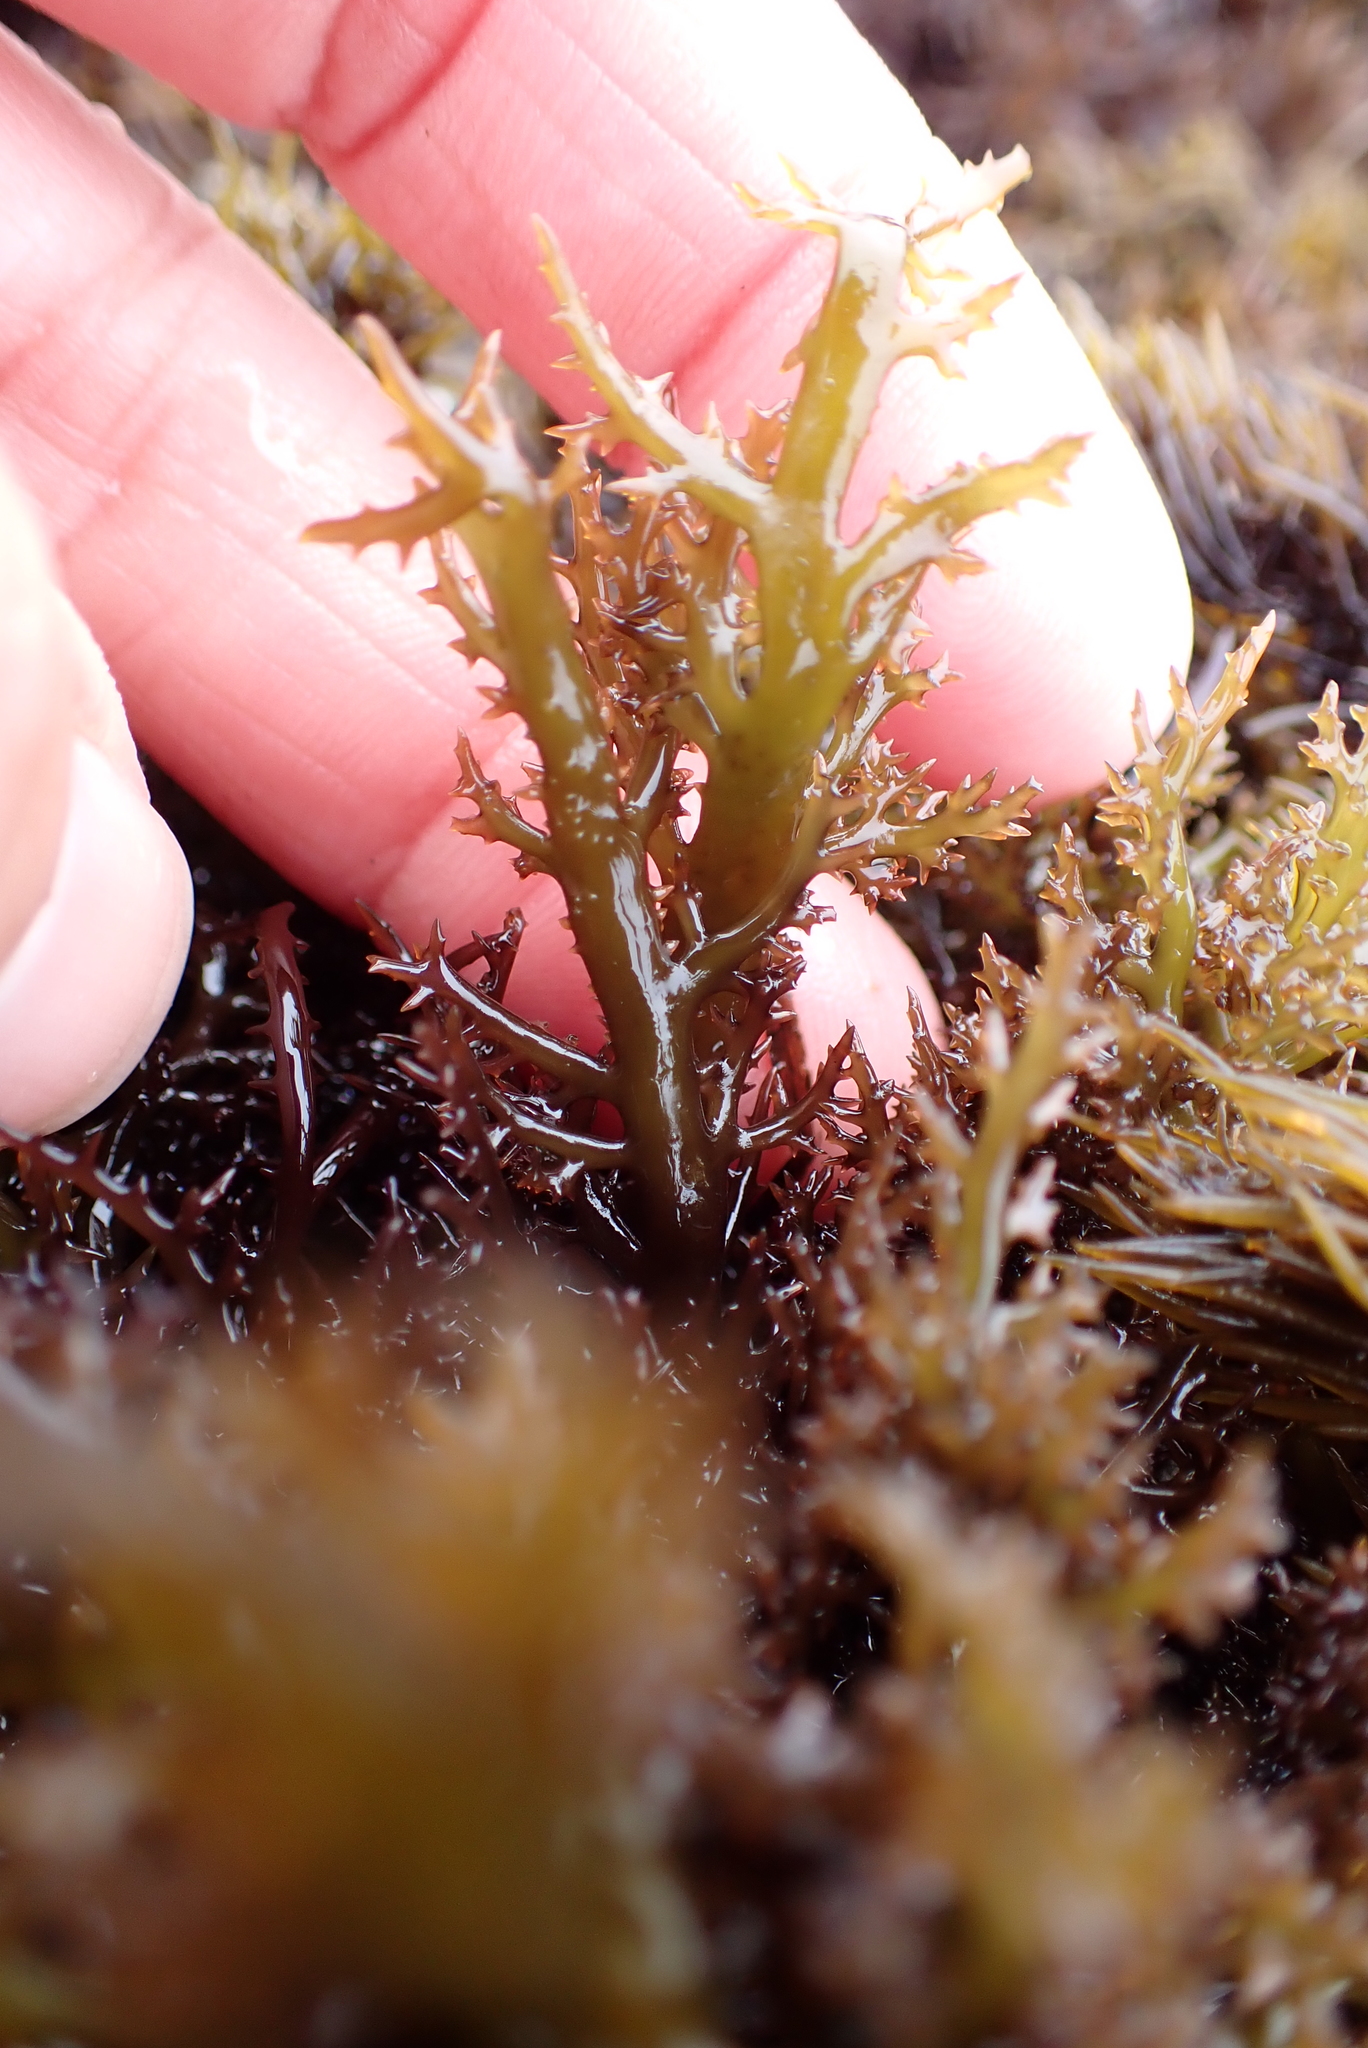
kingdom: Plantae
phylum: Rhodophyta
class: Florideophyceae
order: Gigartinales
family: Gigartinaceae
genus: Chondracanthus
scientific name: Chondracanthus canaliculatus
